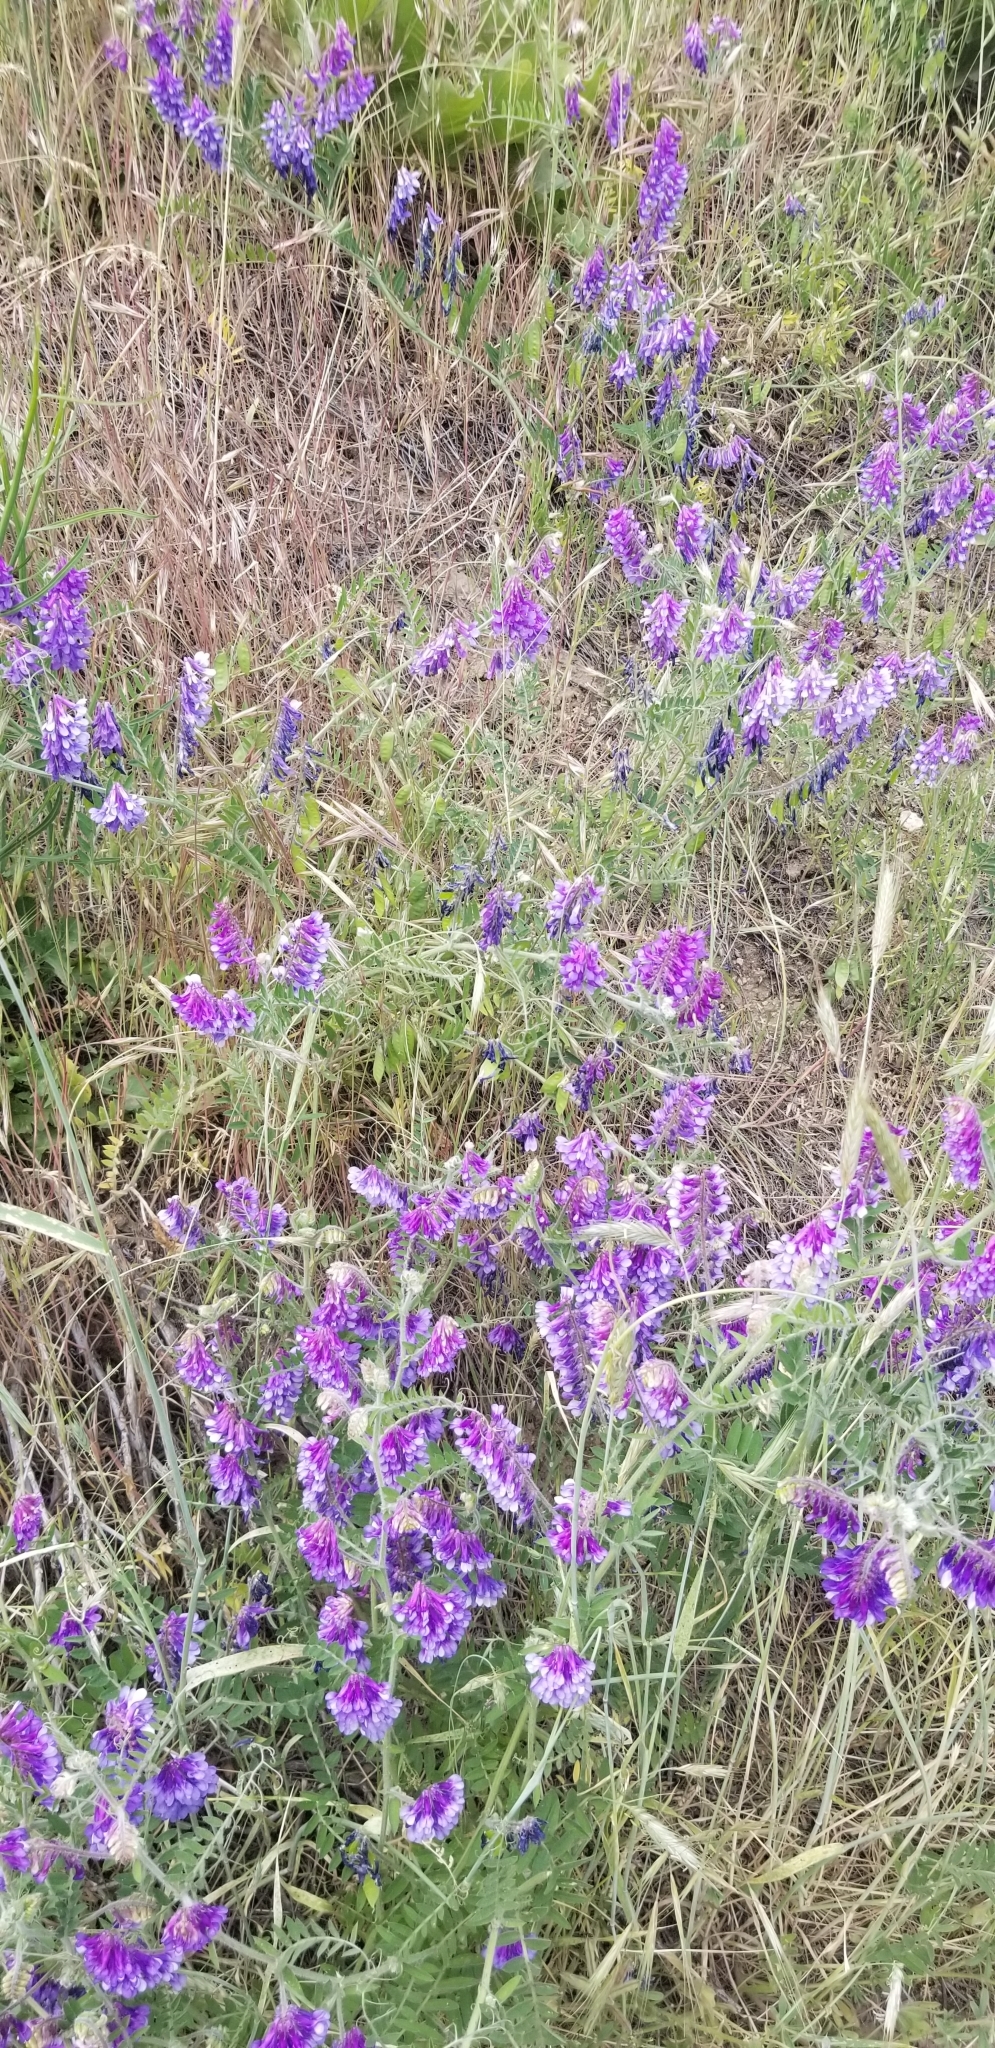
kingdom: Plantae
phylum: Tracheophyta
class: Magnoliopsida
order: Fabales
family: Fabaceae
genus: Vicia
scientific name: Vicia villosa
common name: Fodder vetch
